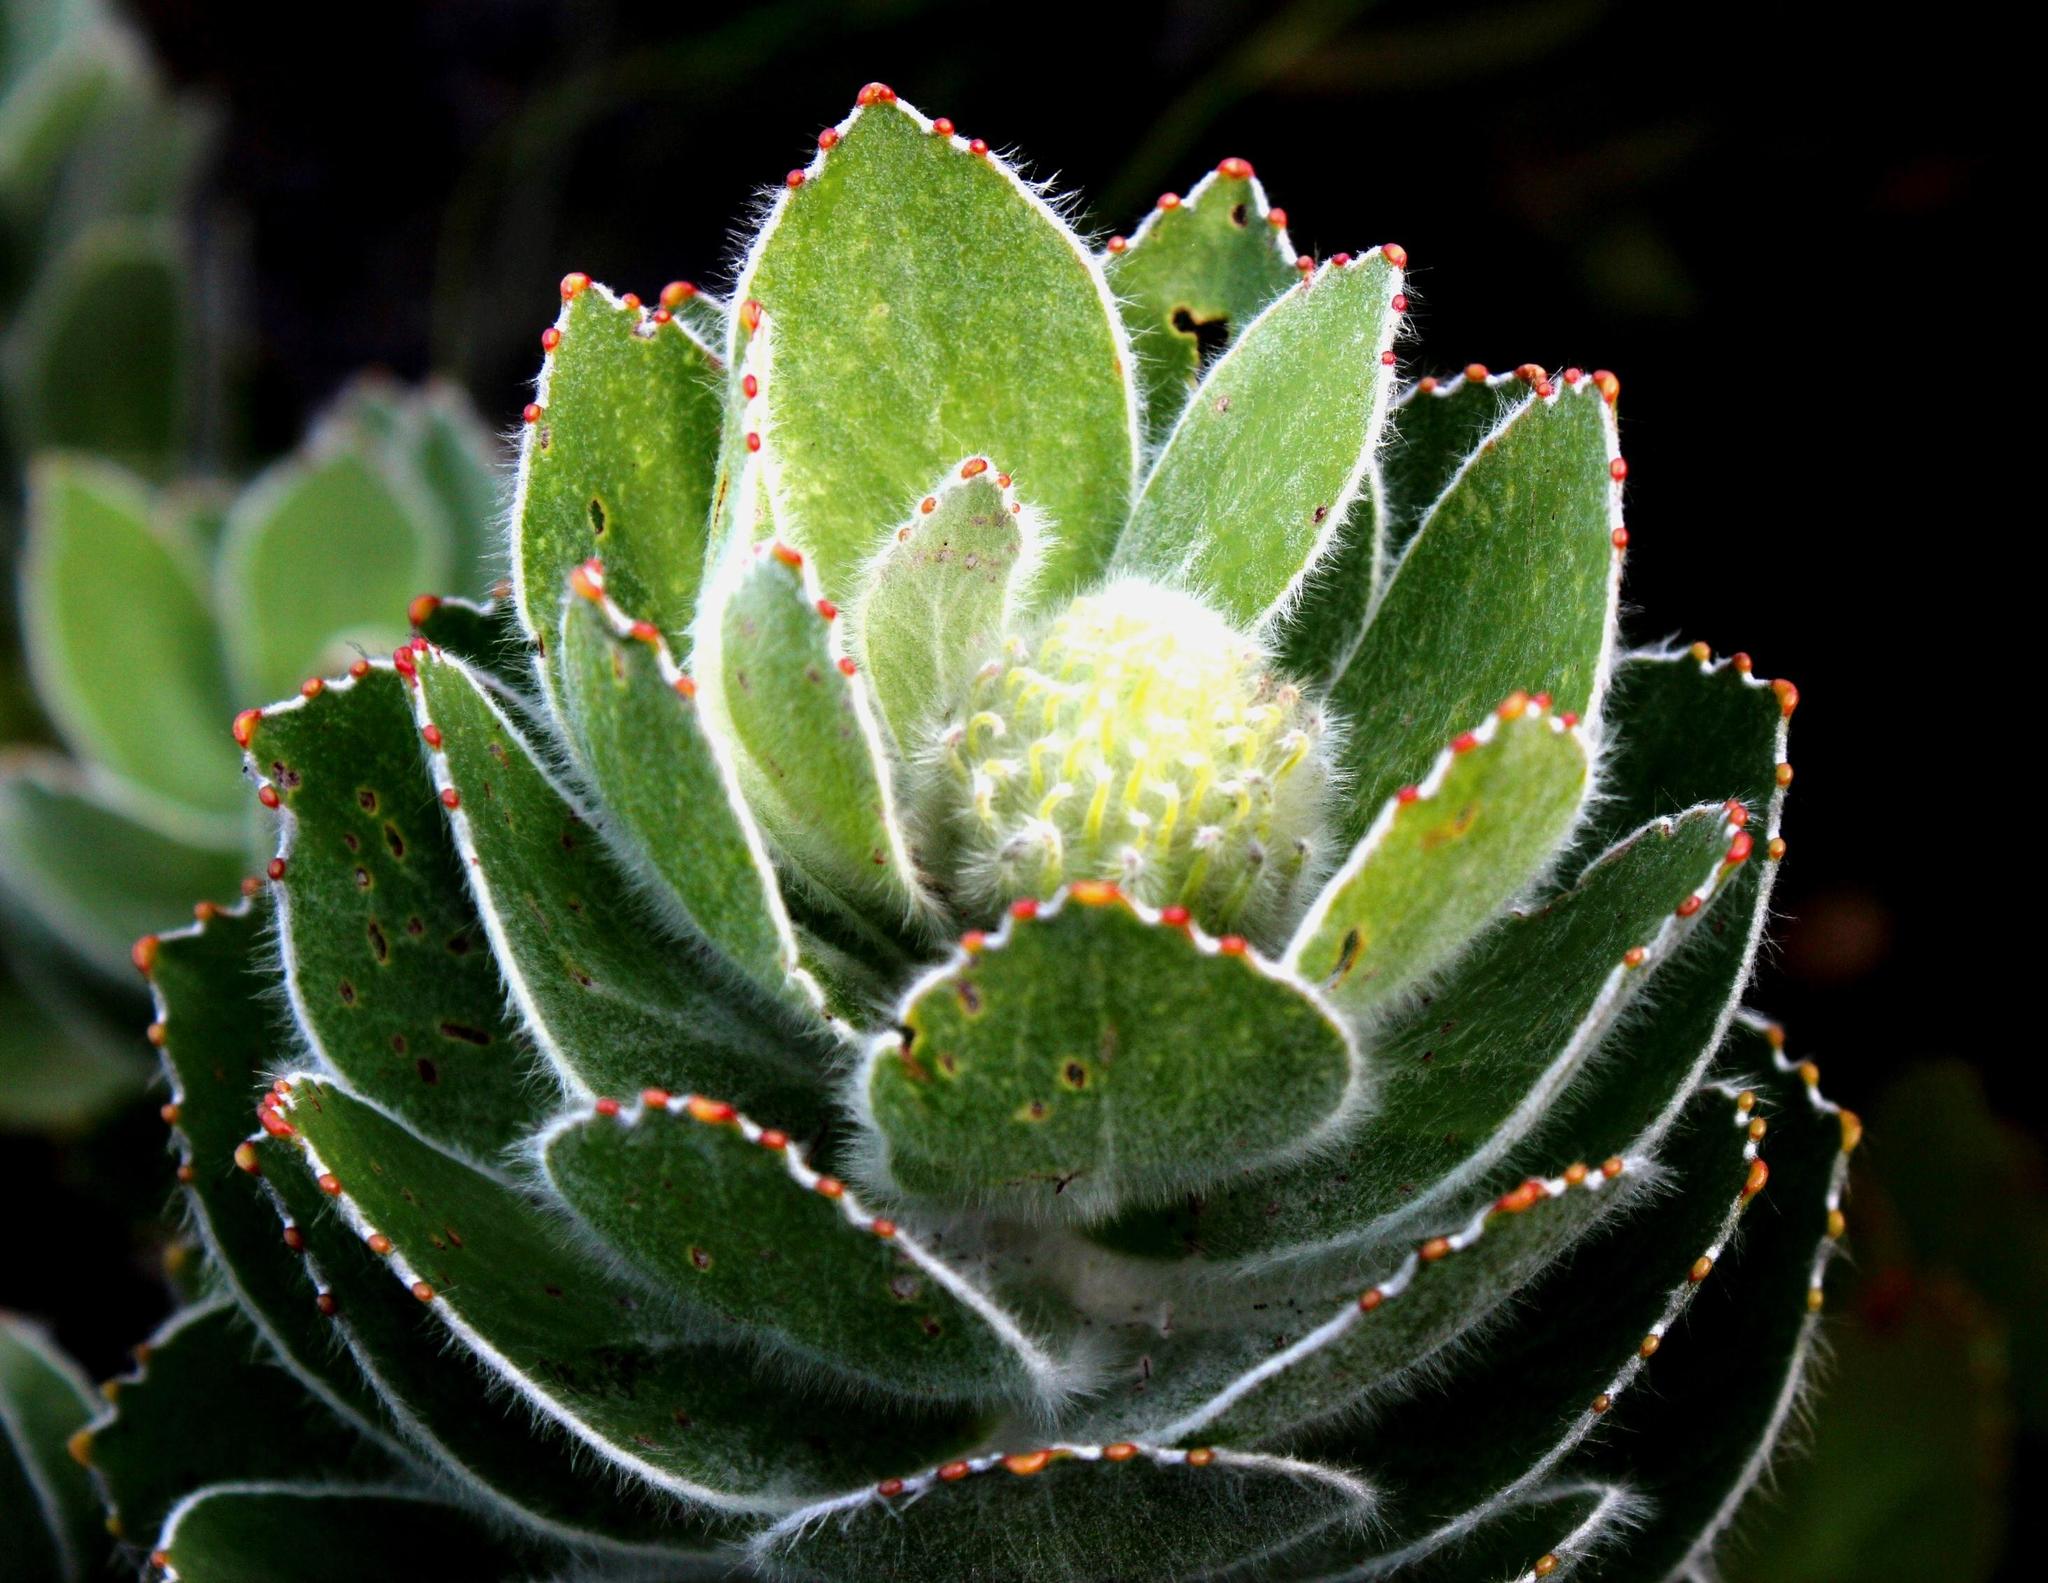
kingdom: Plantae
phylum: Tracheophyta
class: Magnoliopsida
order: Proteales
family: Proteaceae
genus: Leucospermum
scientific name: Leucospermum conocarpodendron
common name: Tree pincushion
